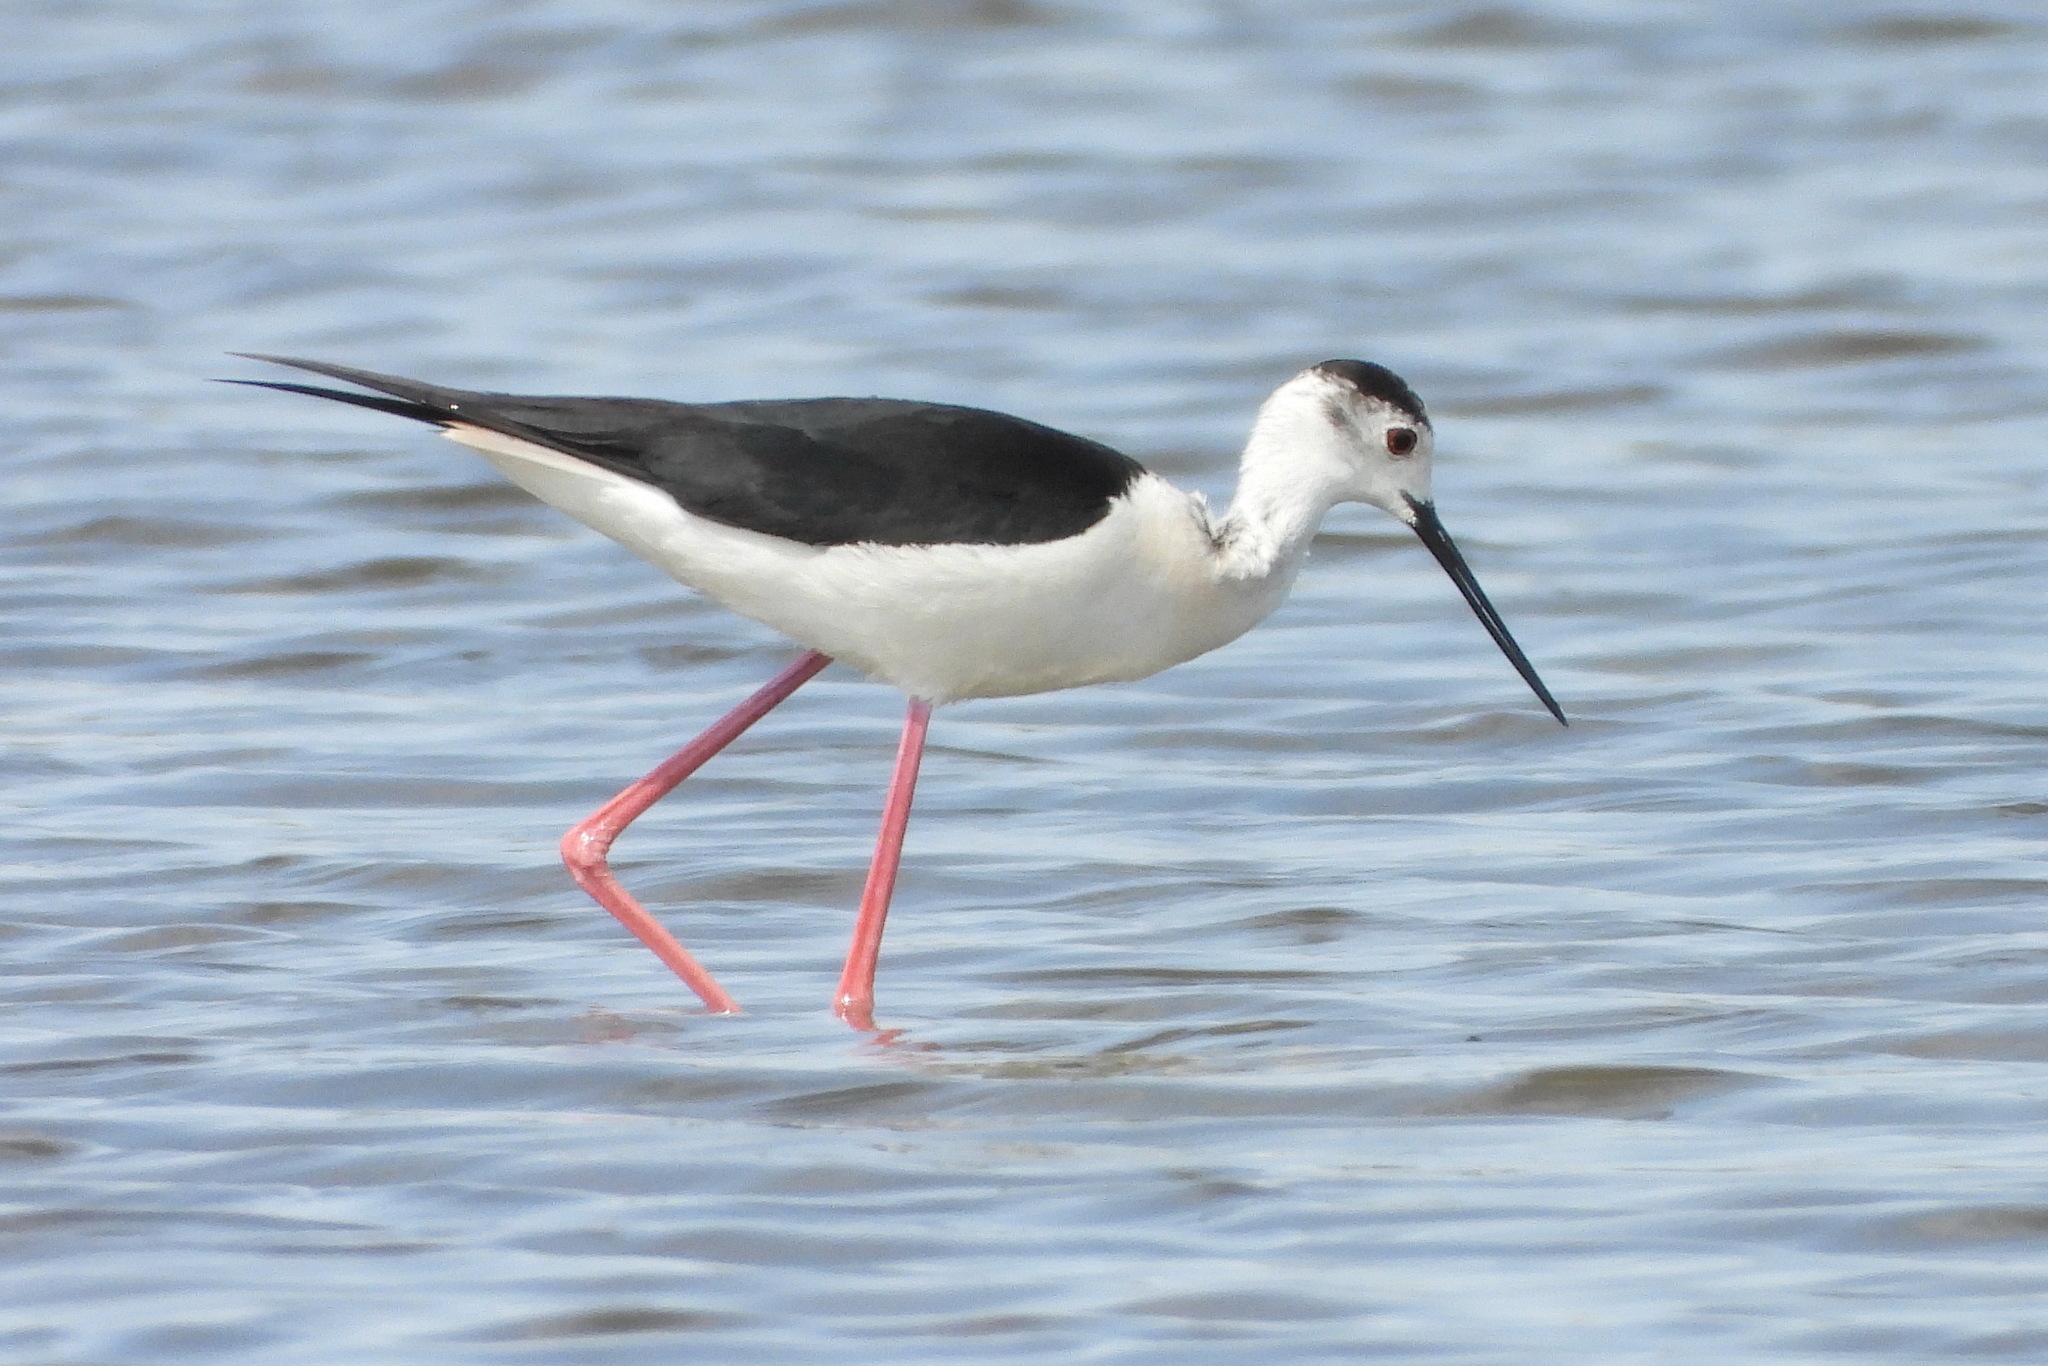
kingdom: Animalia
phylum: Chordata
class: Aves
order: Charadriiformes
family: Recurvirostridae
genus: Himantopus
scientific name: Himantopus himantopus
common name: Black-winged stilt
